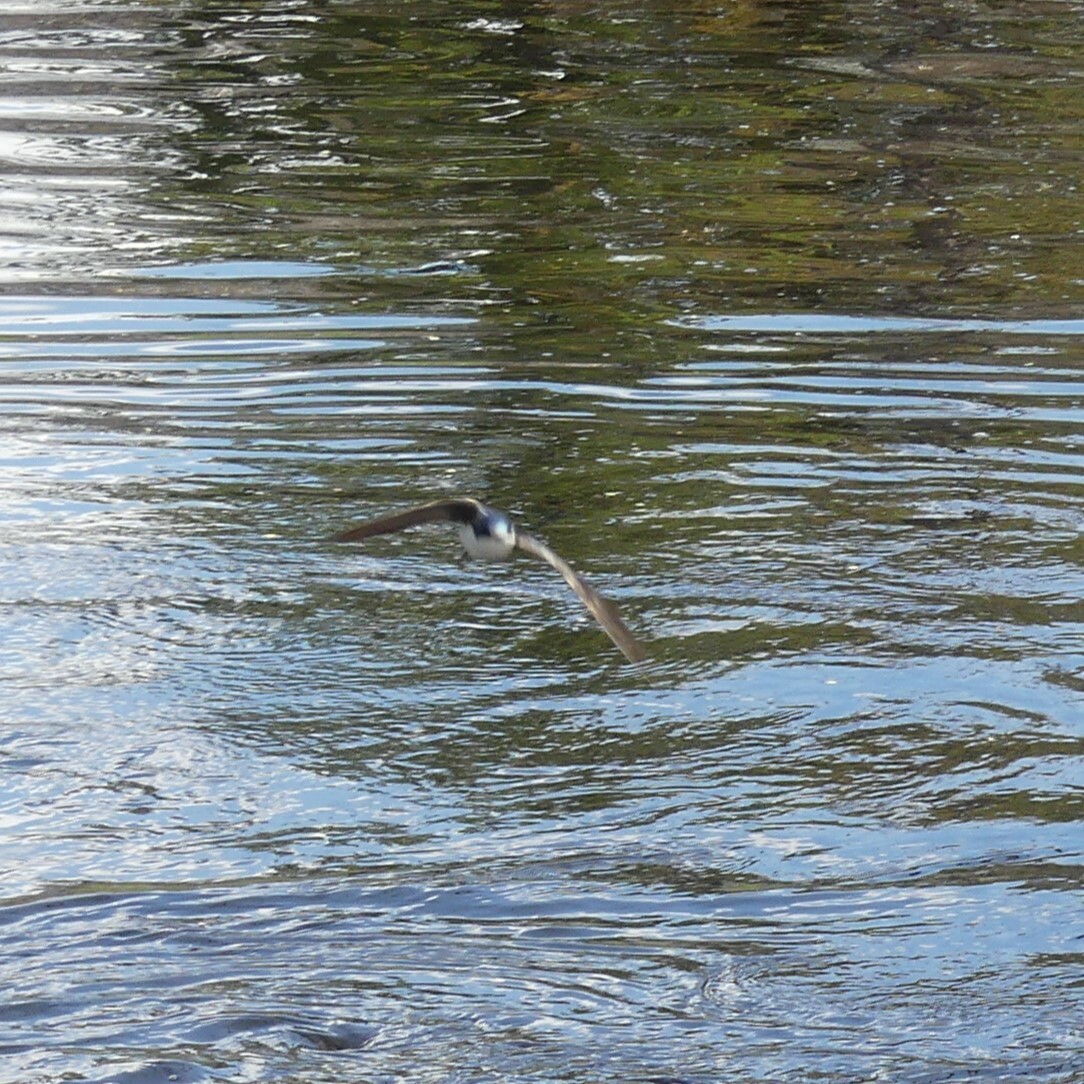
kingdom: Animalia
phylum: Chordata
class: Aves
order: Passeriformes
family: Hirundinidae
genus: Tachycineta
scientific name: Tachycineta bicolor
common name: Tree swallow
